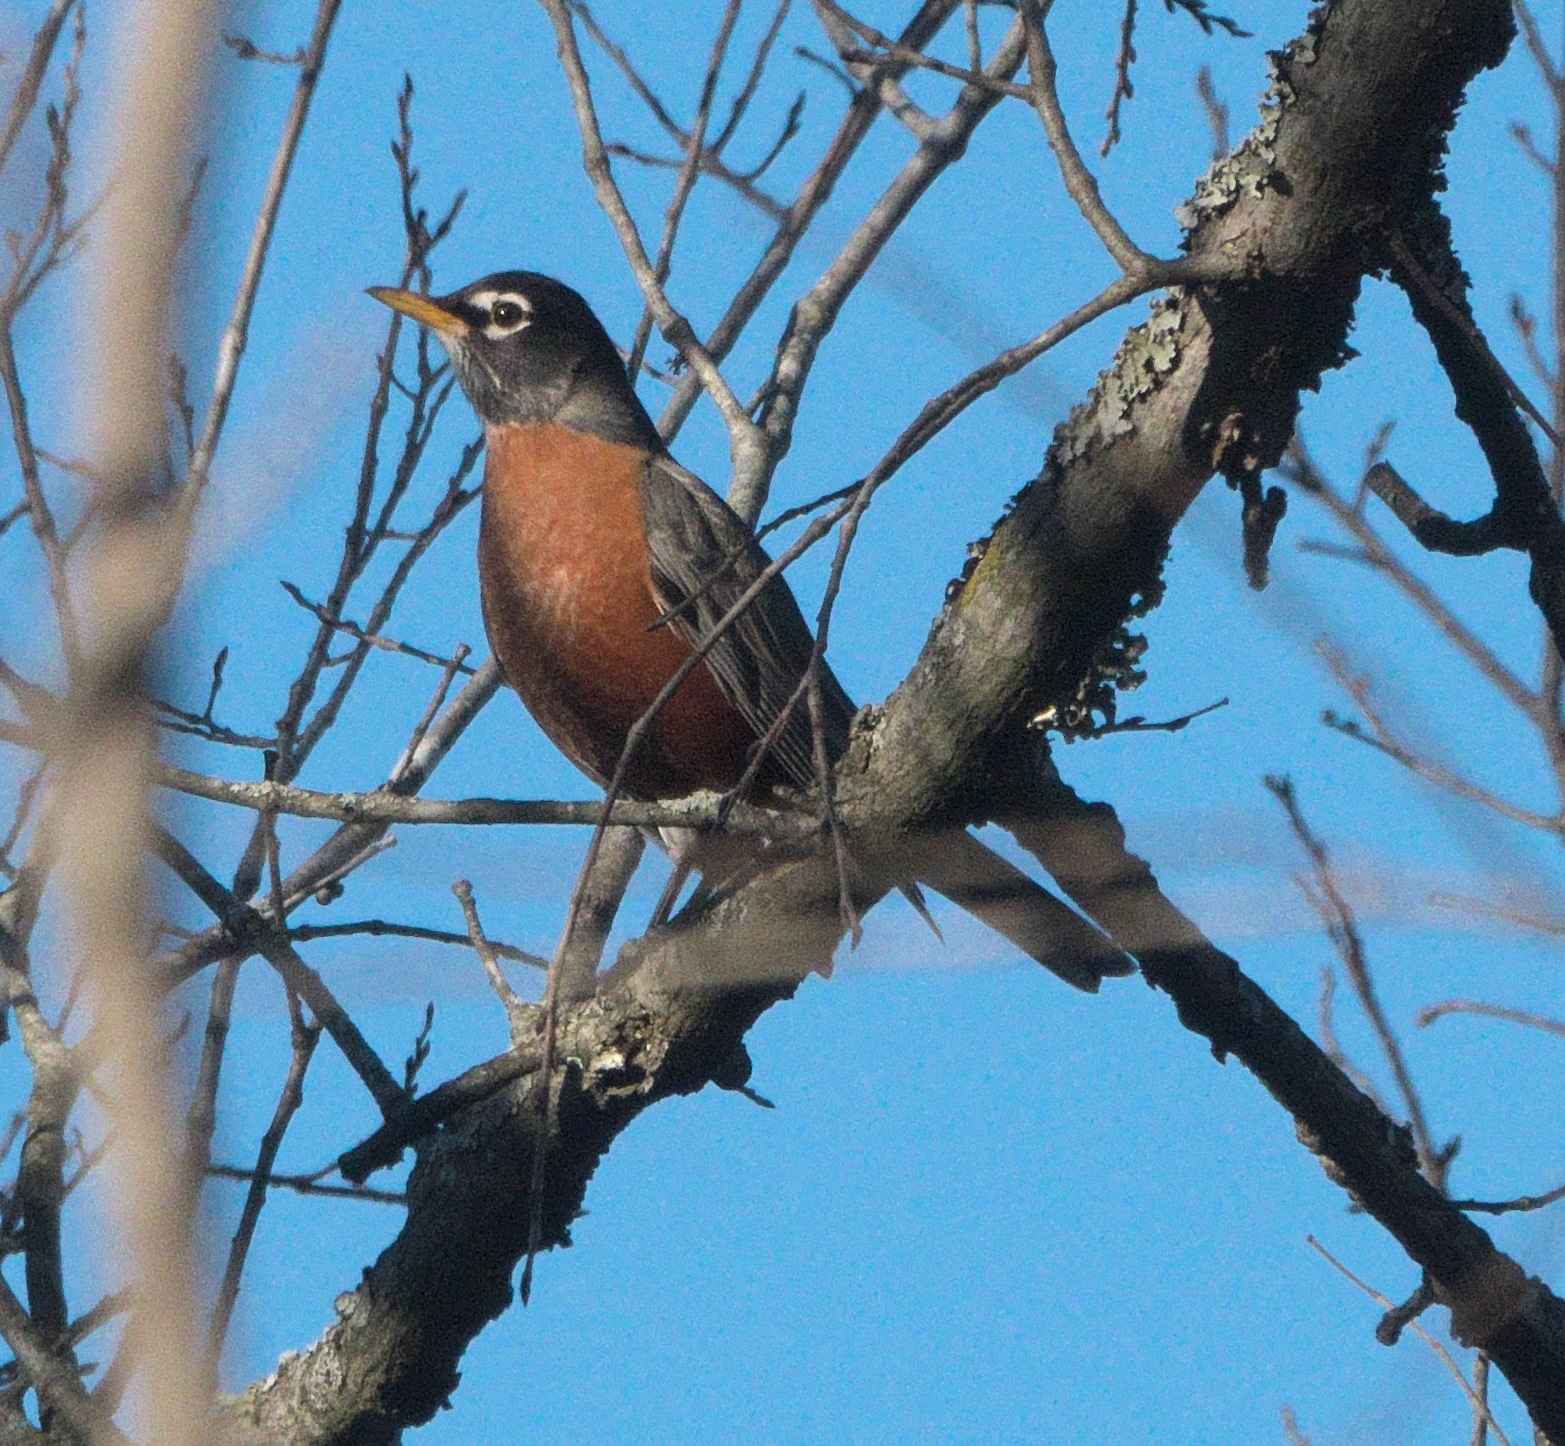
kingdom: Animalia
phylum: Chordata
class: Aves
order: Passeriformes
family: Turdidae
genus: Turdus
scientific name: Turdus migratorius
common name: American robin
